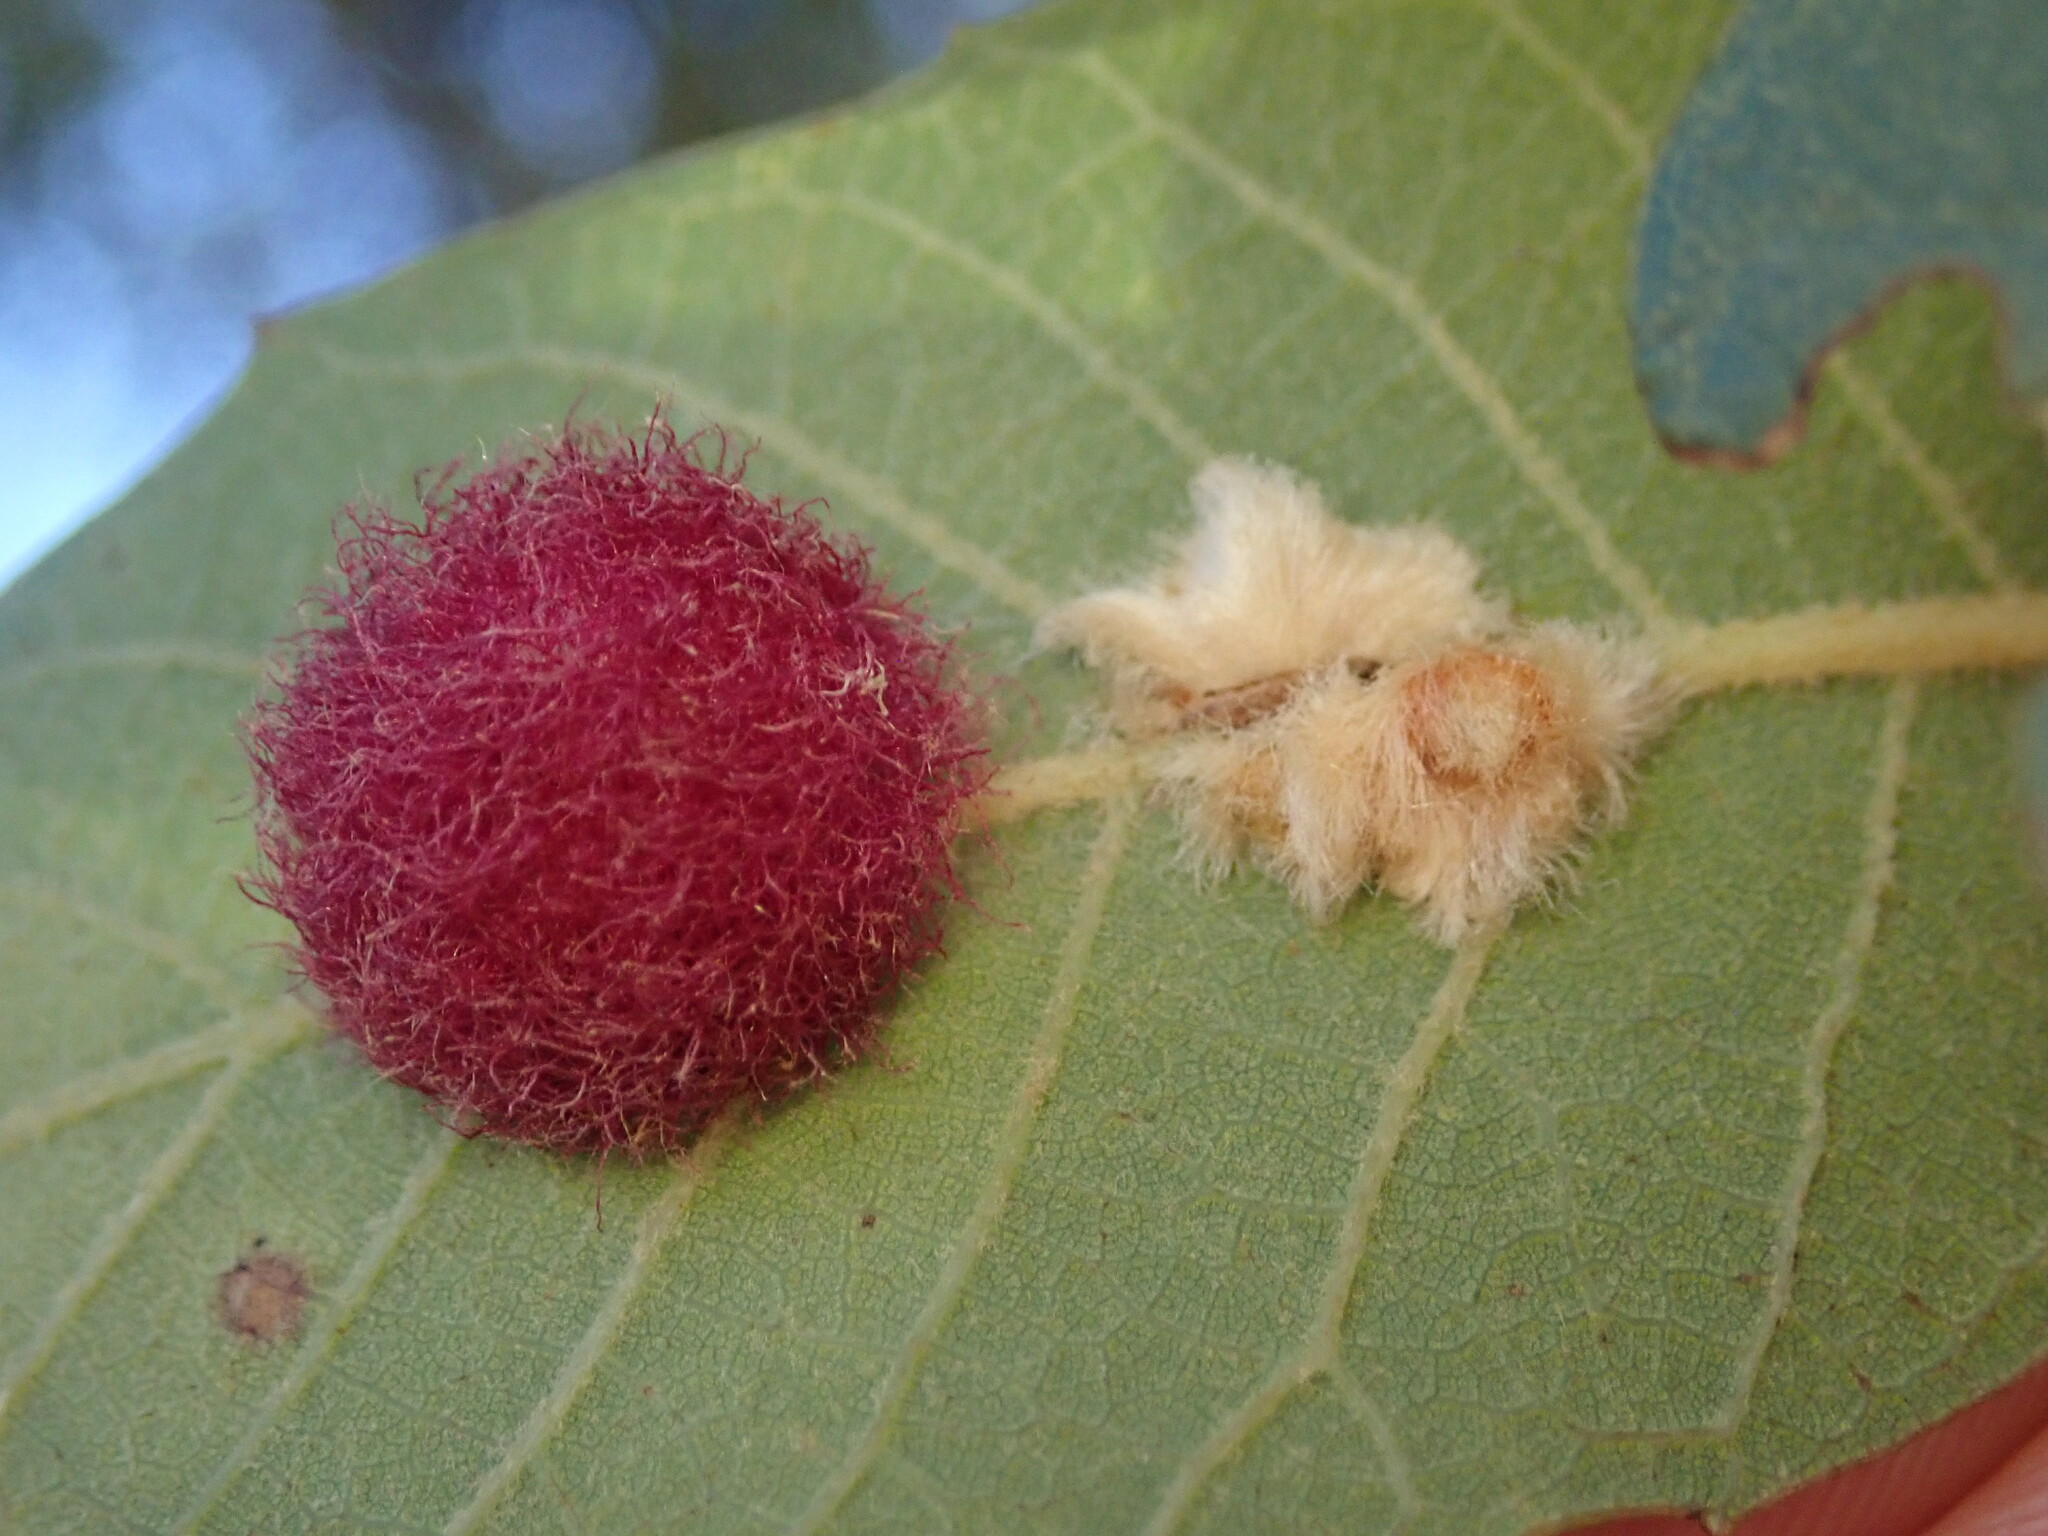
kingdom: Animalia
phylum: Arthropoda
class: Insecta
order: Hymenoptera
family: Cynipidae
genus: Cynips
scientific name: Cynips
